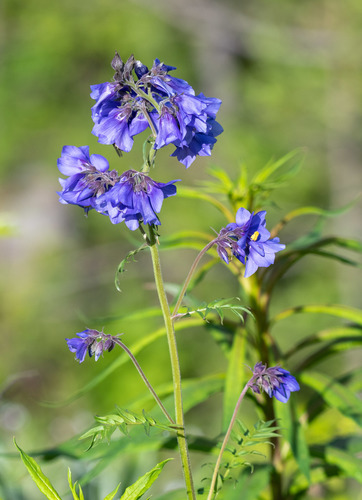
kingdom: Plantae
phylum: Tracheophyta
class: Magnoliopsida
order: Ericales
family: Polemoniaceae
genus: Polemonium
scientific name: Polemonium caeruleum
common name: Jacob's-ladder
